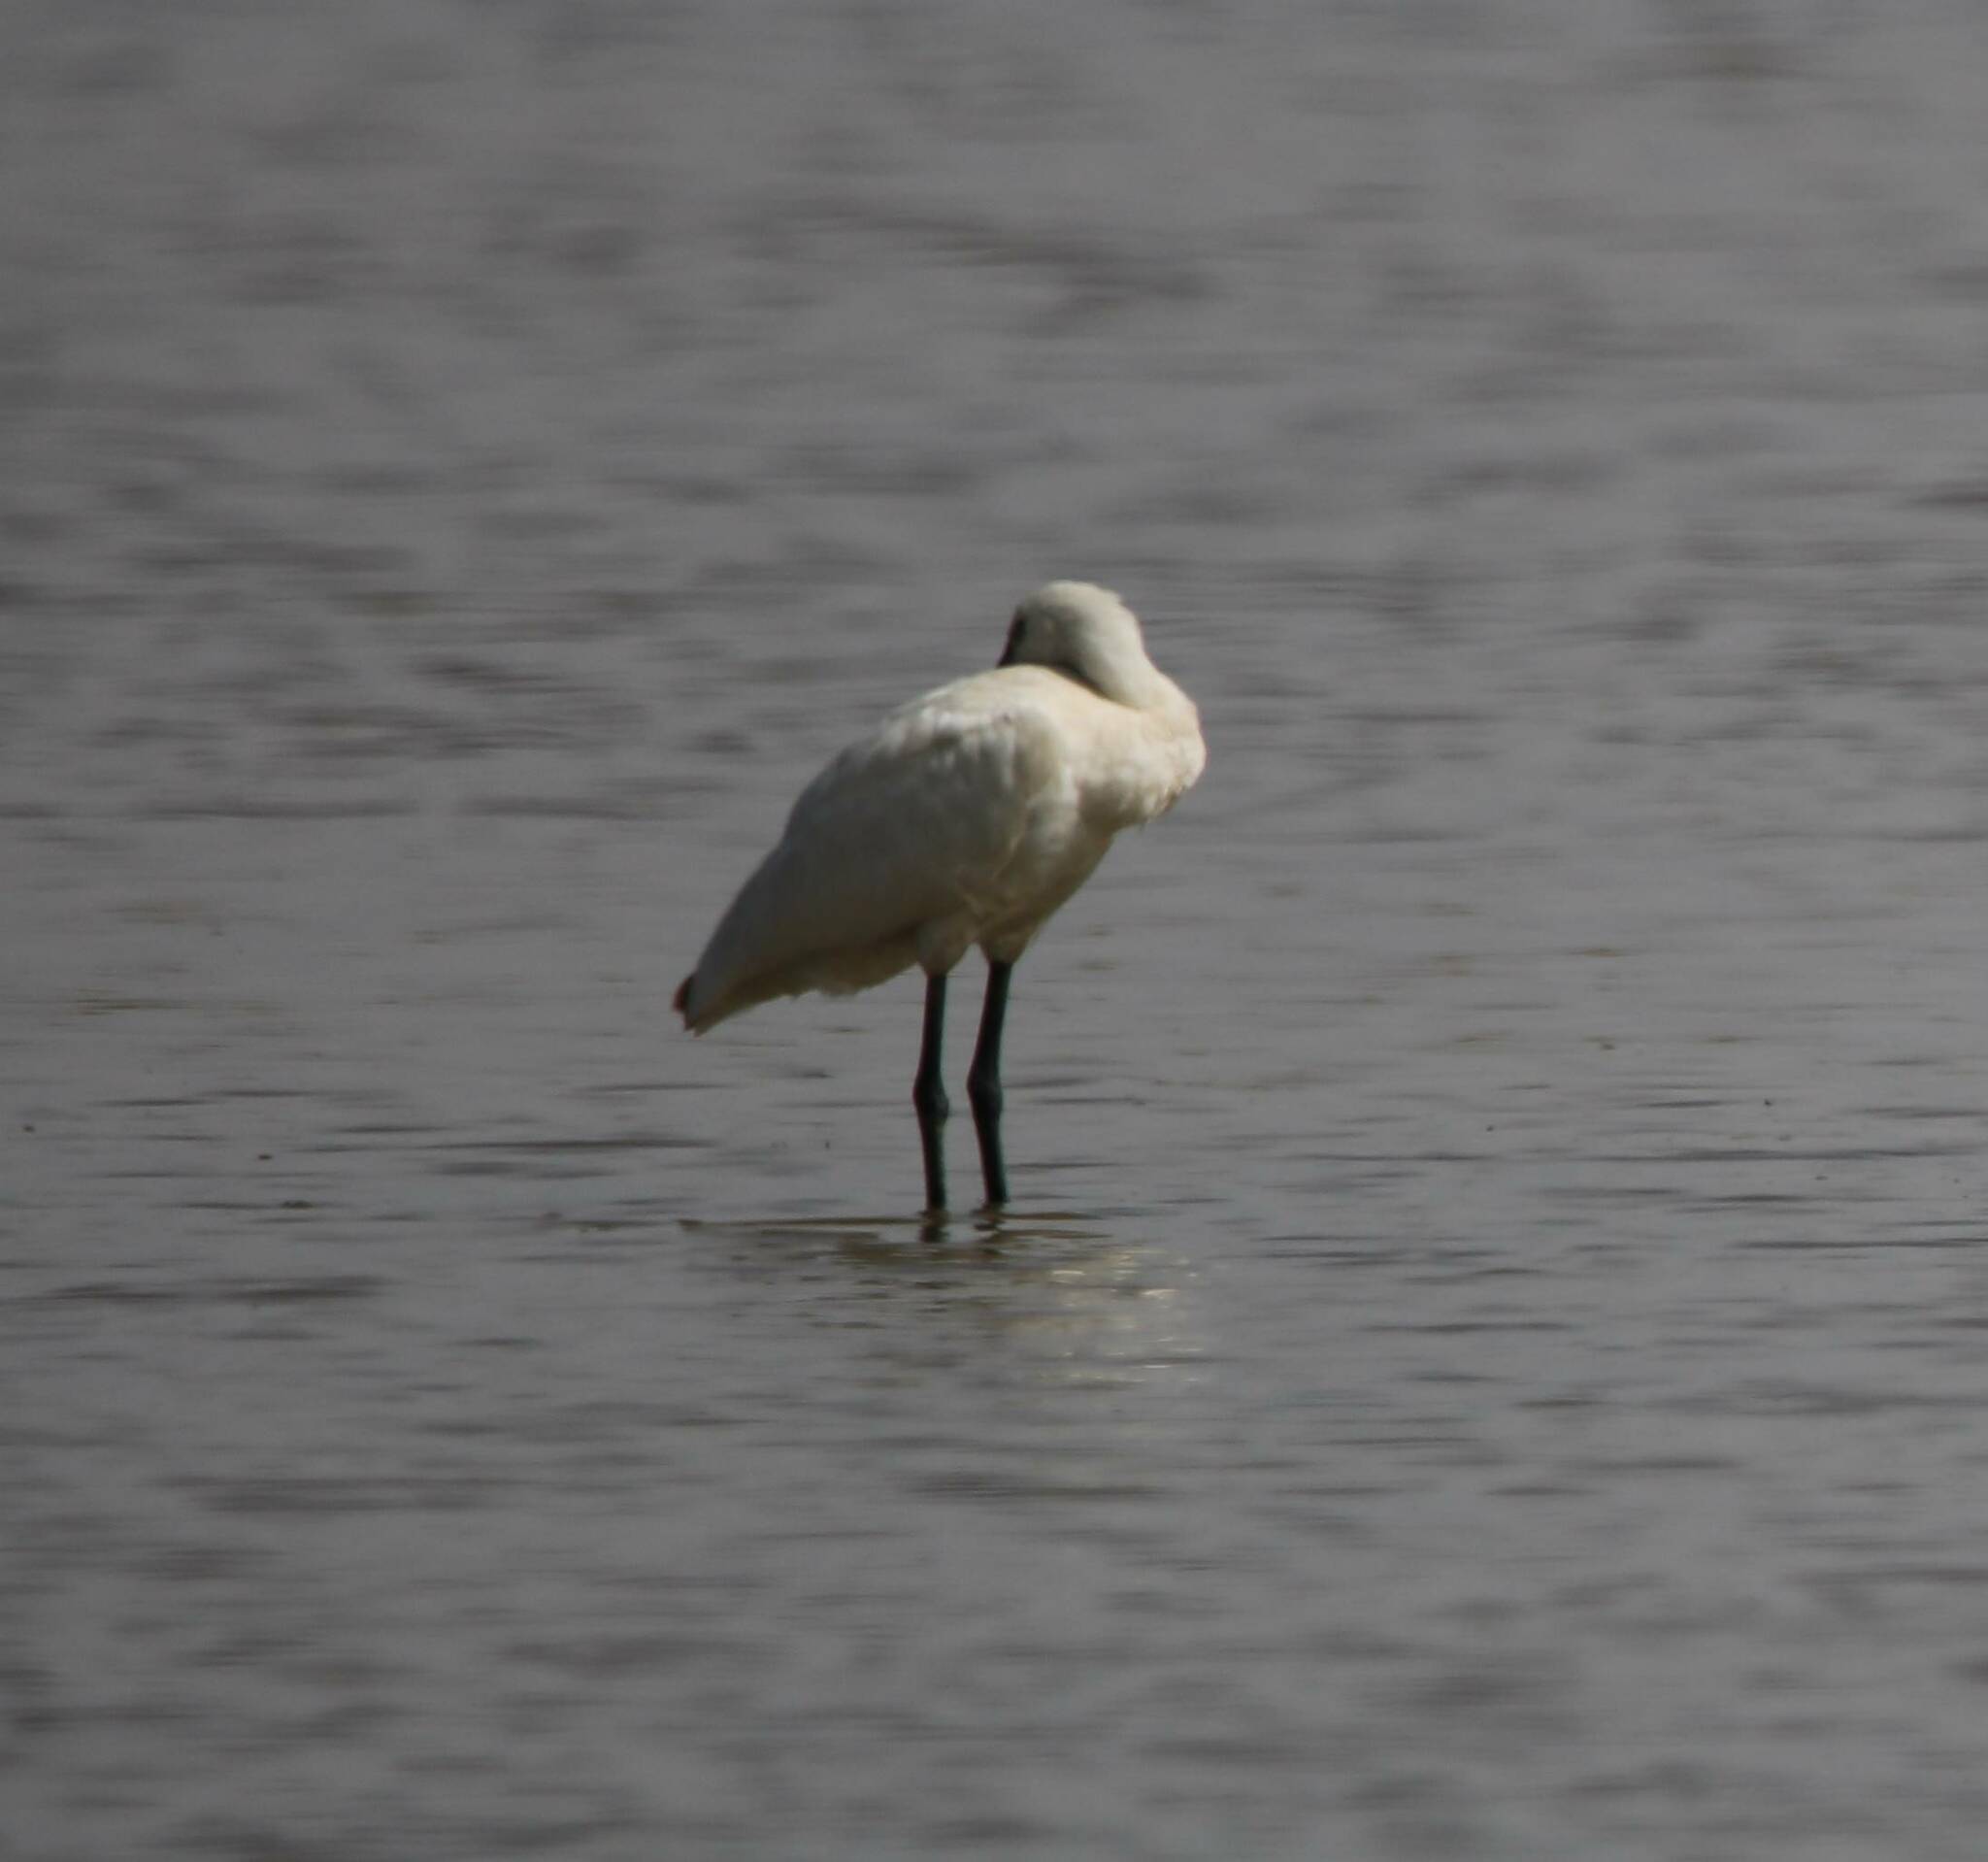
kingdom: Animalia
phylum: Chordata
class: Aves
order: Pelecaniformes
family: Threskiornithidae
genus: Platalea
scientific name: Platalea leucorodia
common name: Eurasian spoonbill
